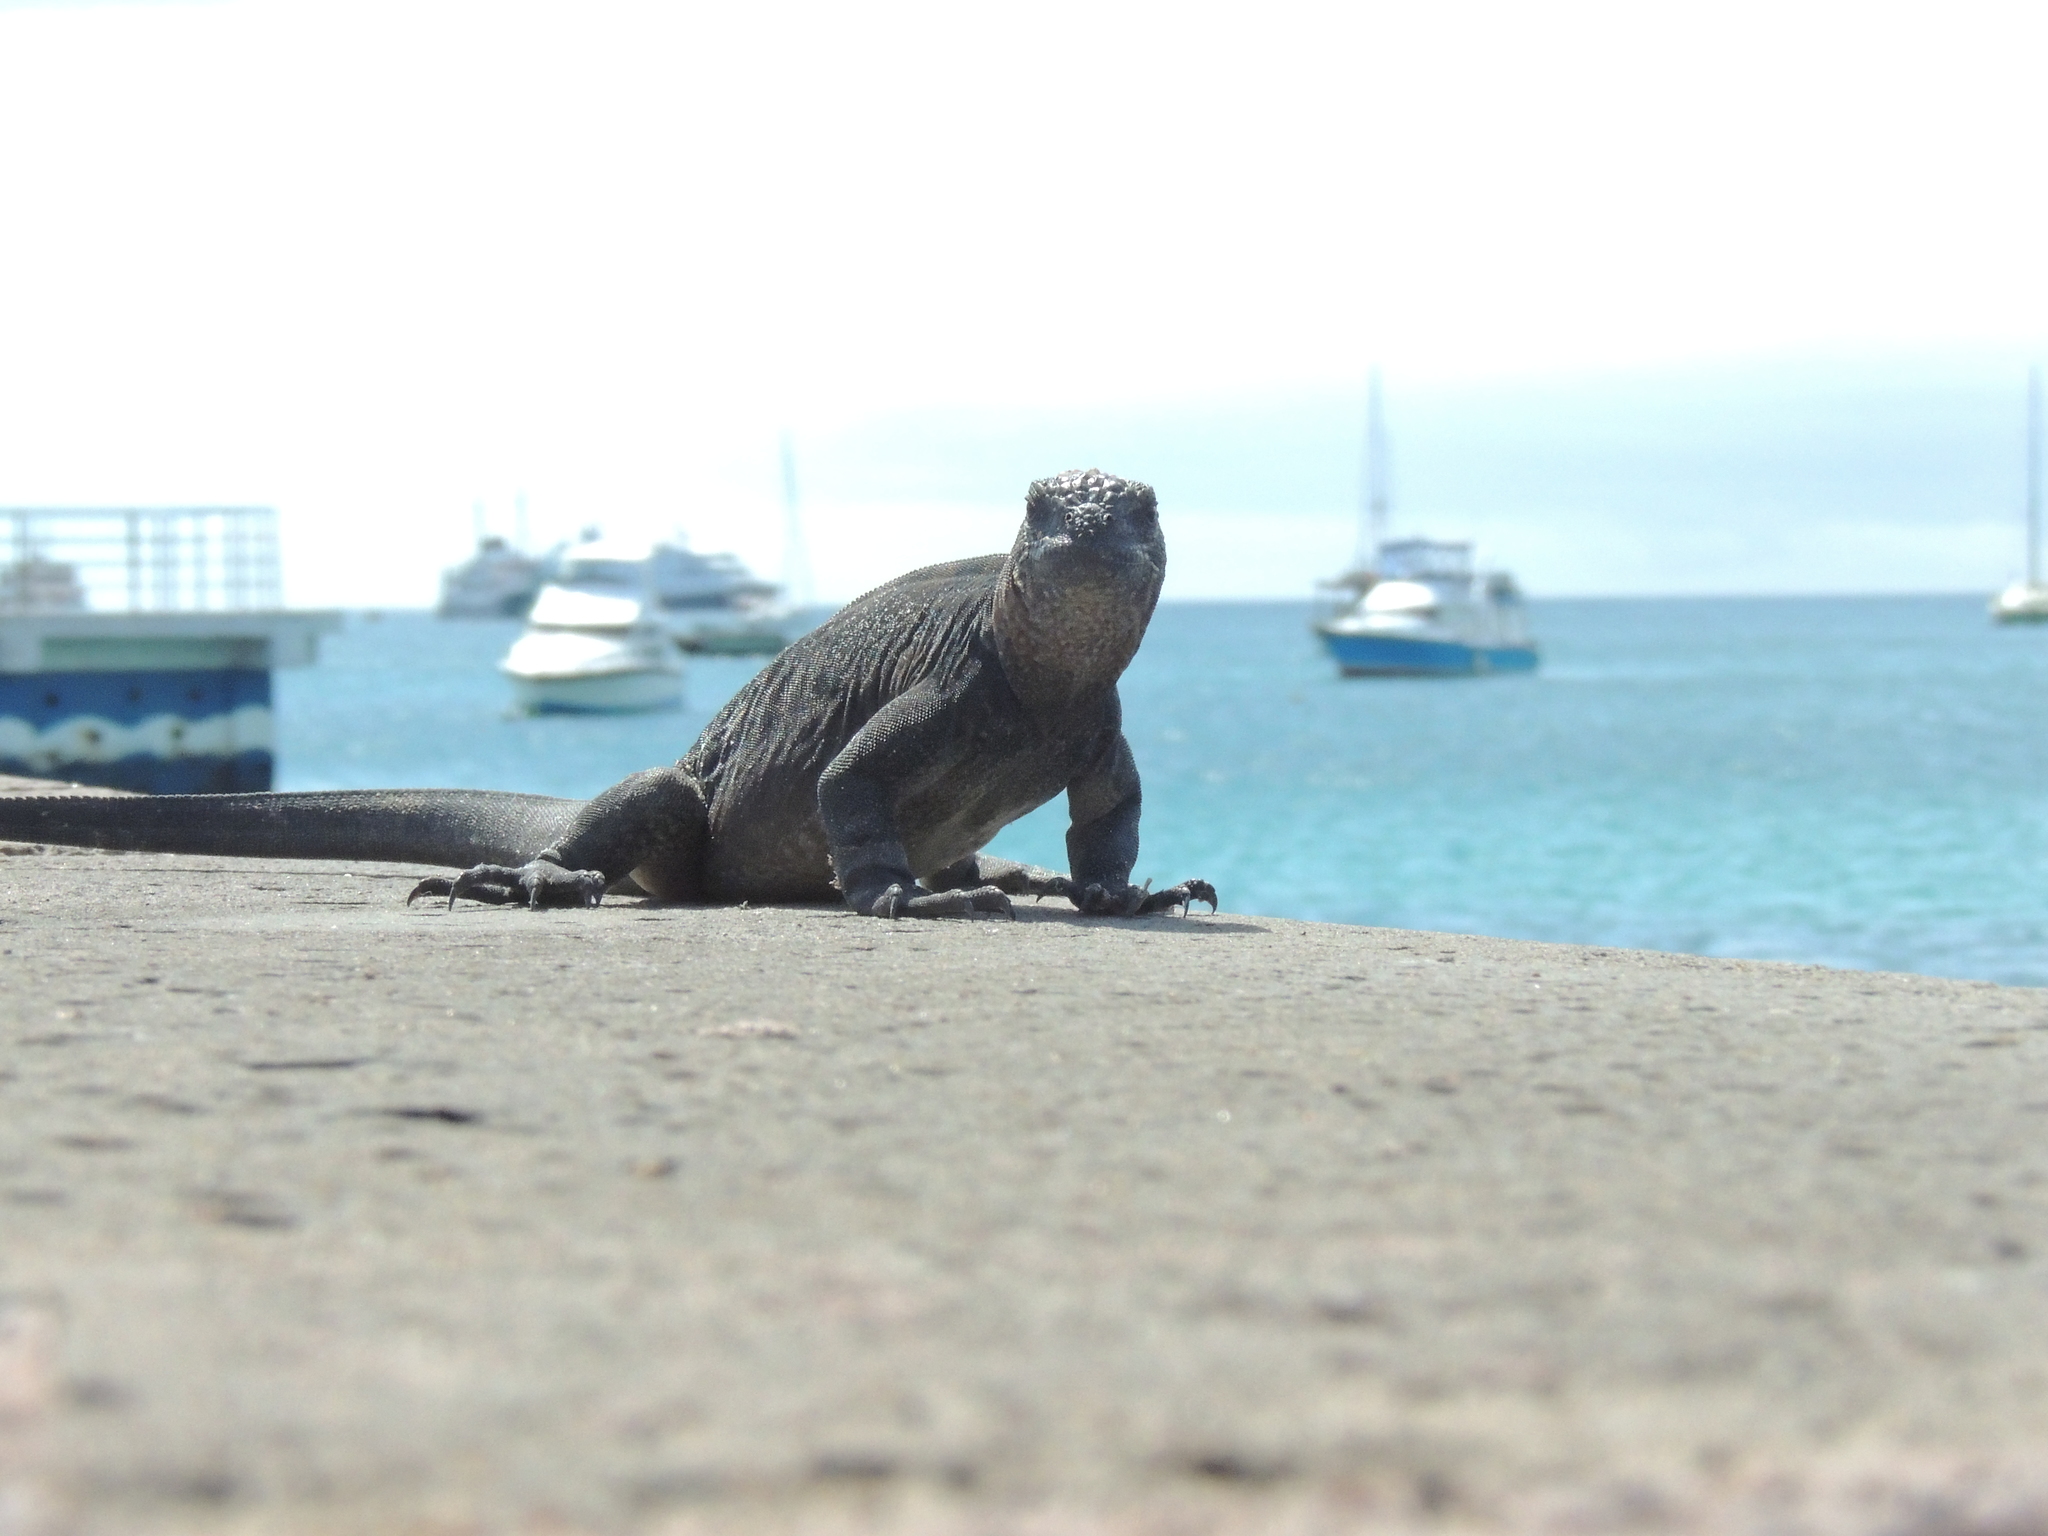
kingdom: Animalia
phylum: Chordata
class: Squamata
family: Iguanidae
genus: Amblyrhynchus
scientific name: Amblyrhynchus cristatus
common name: Marine iguana
